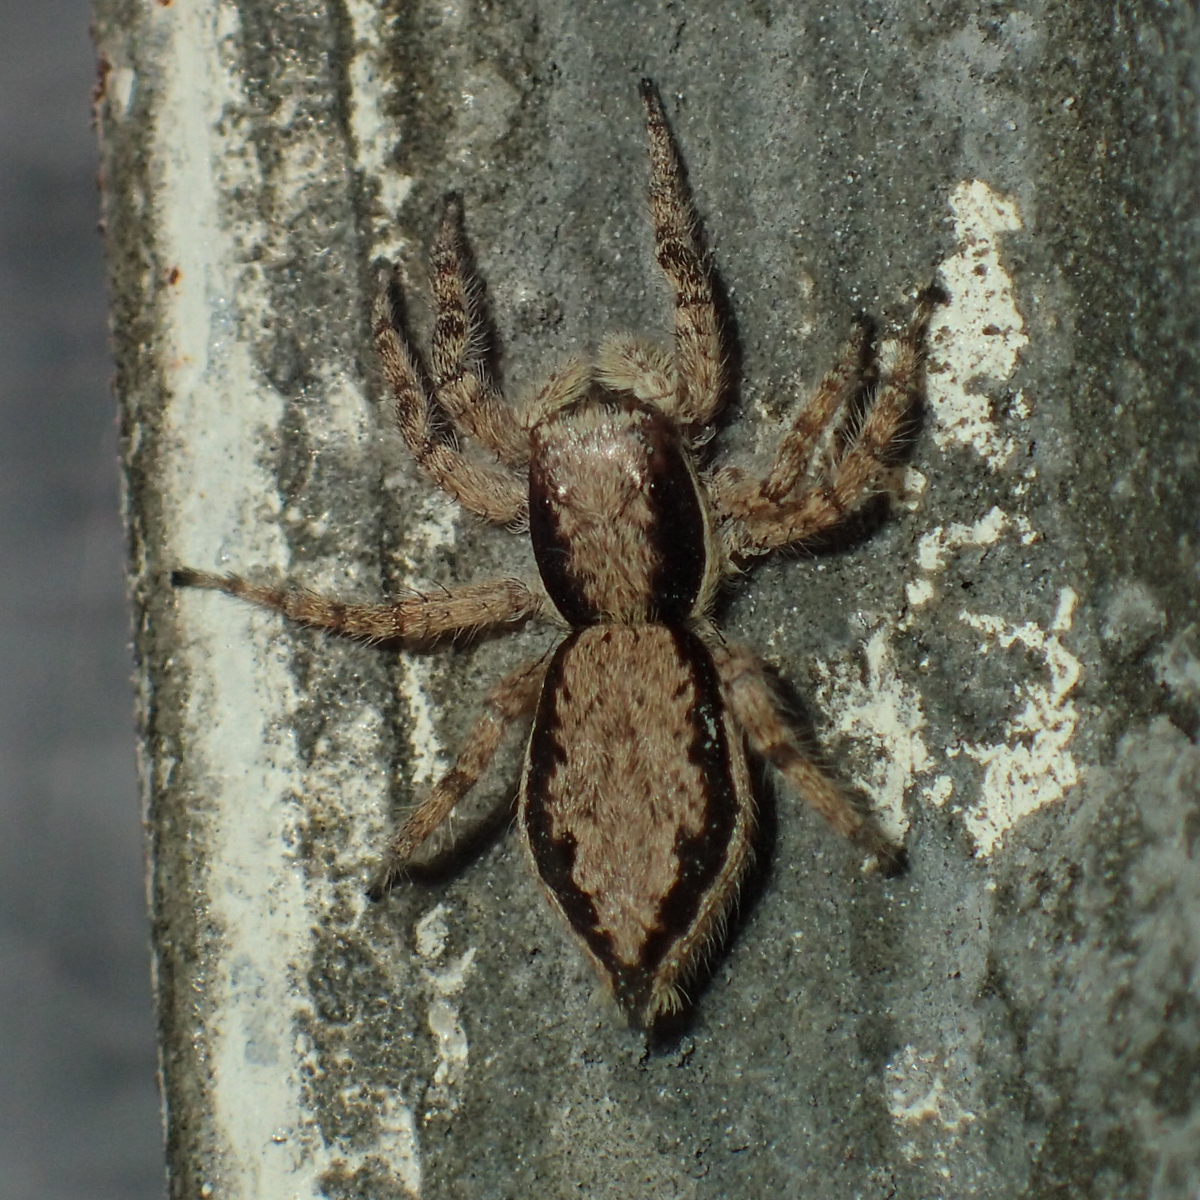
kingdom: Animalia
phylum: Arthropoda
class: Arachnida
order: Araneae
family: Salticidae
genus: Menemerus
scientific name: Menemerus bivittatus
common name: Gray wall jumper
